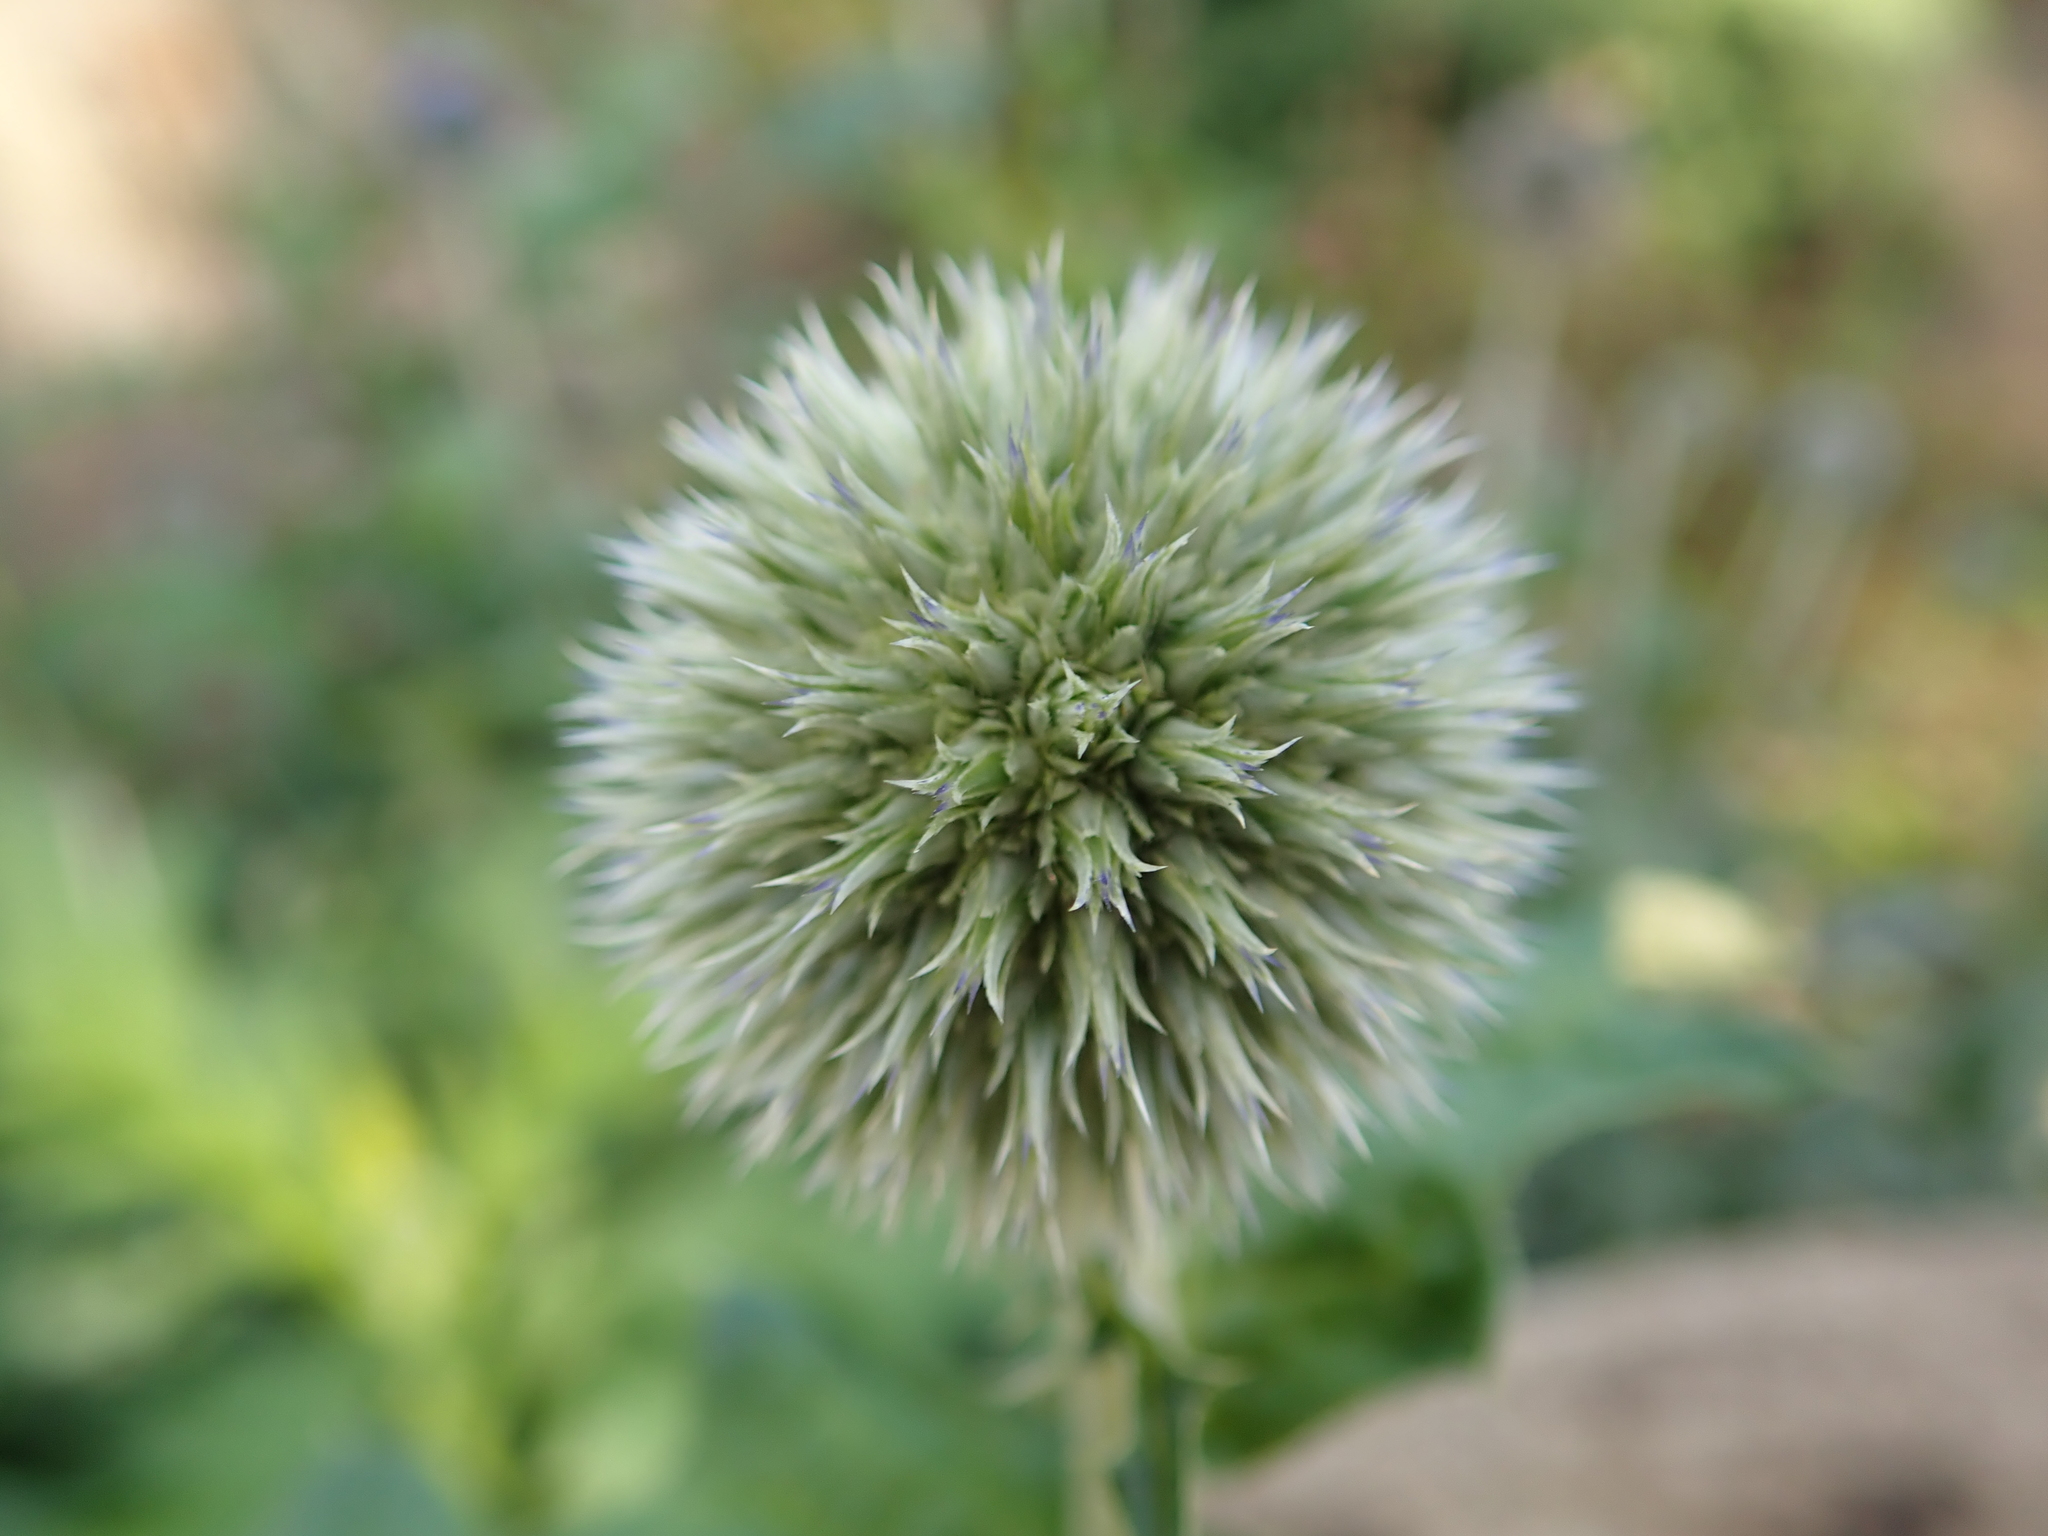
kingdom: Plantae
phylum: Tracheophyta
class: Magnoliopsida
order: Asterales
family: Asteraceae
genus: Echinops
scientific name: Echinops exaltatus
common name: Globe-thistle
